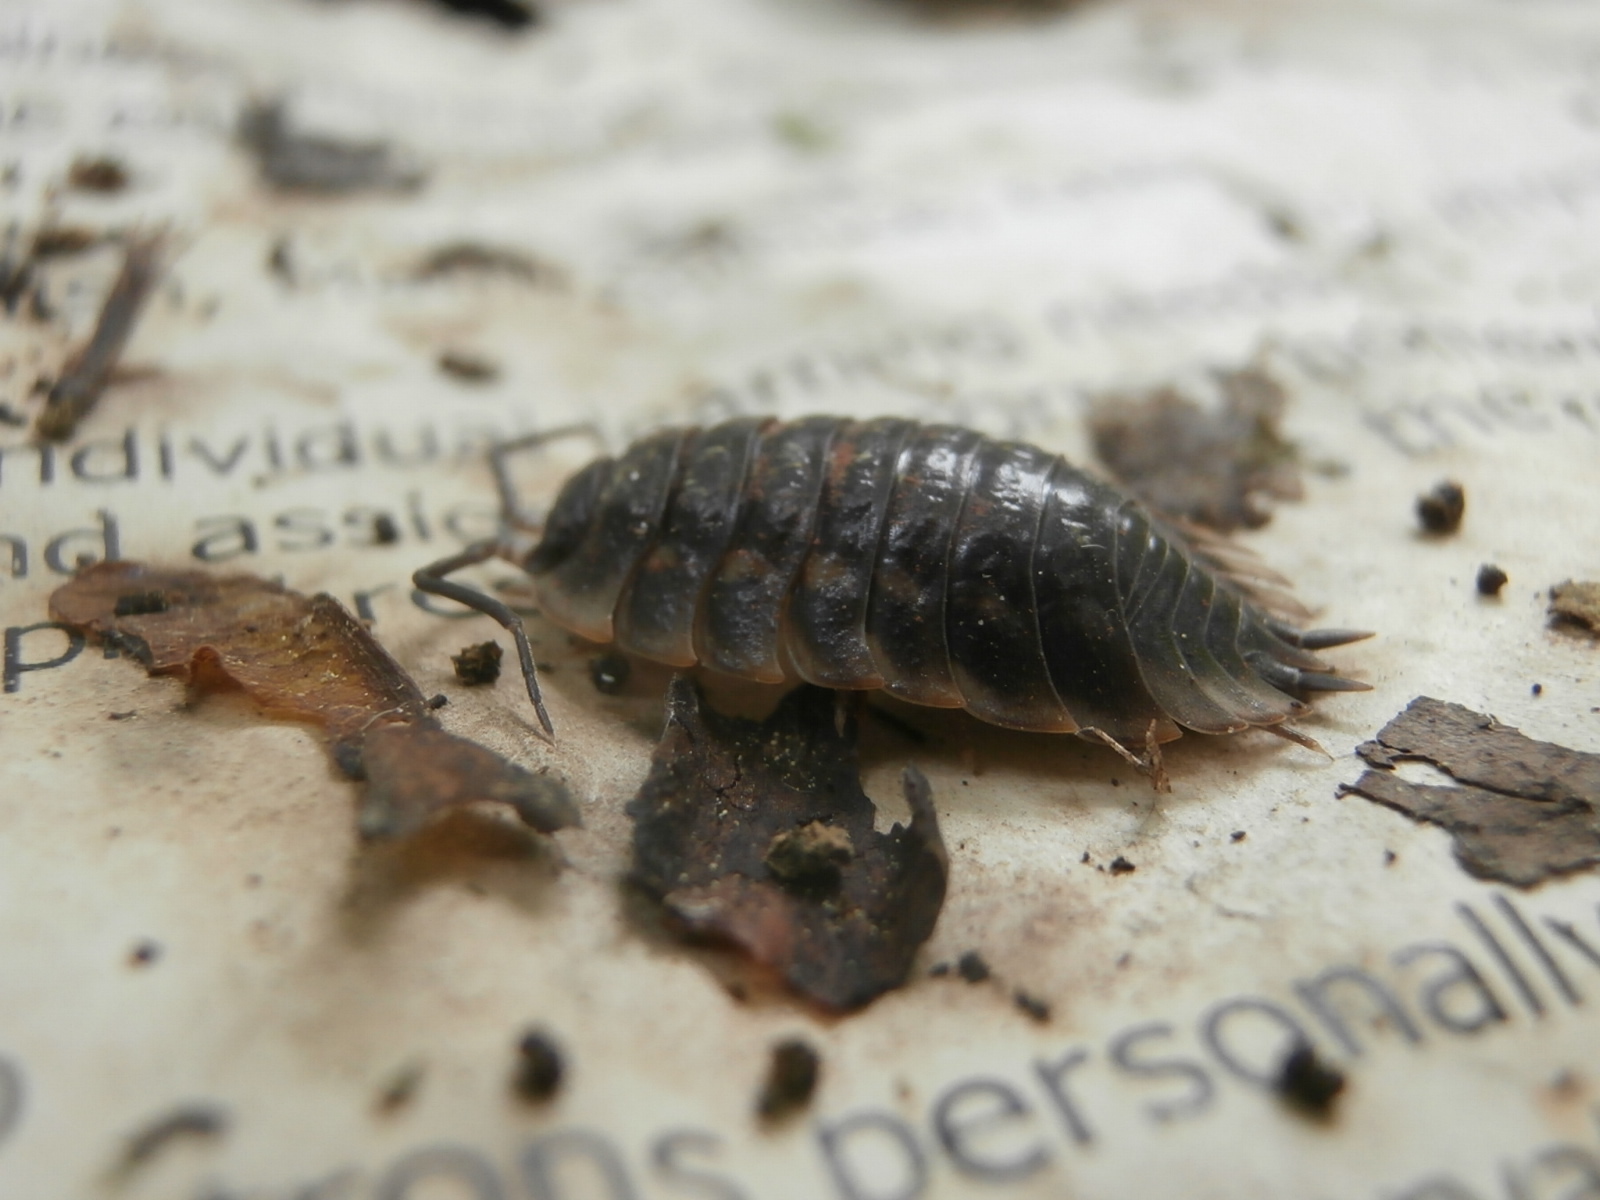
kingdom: Animalia
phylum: Arthropoda
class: Malacostraca
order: Isopoda
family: Oniscidae
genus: Oniscus
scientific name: Oniscus asellus
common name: Common shiny woodlouse
